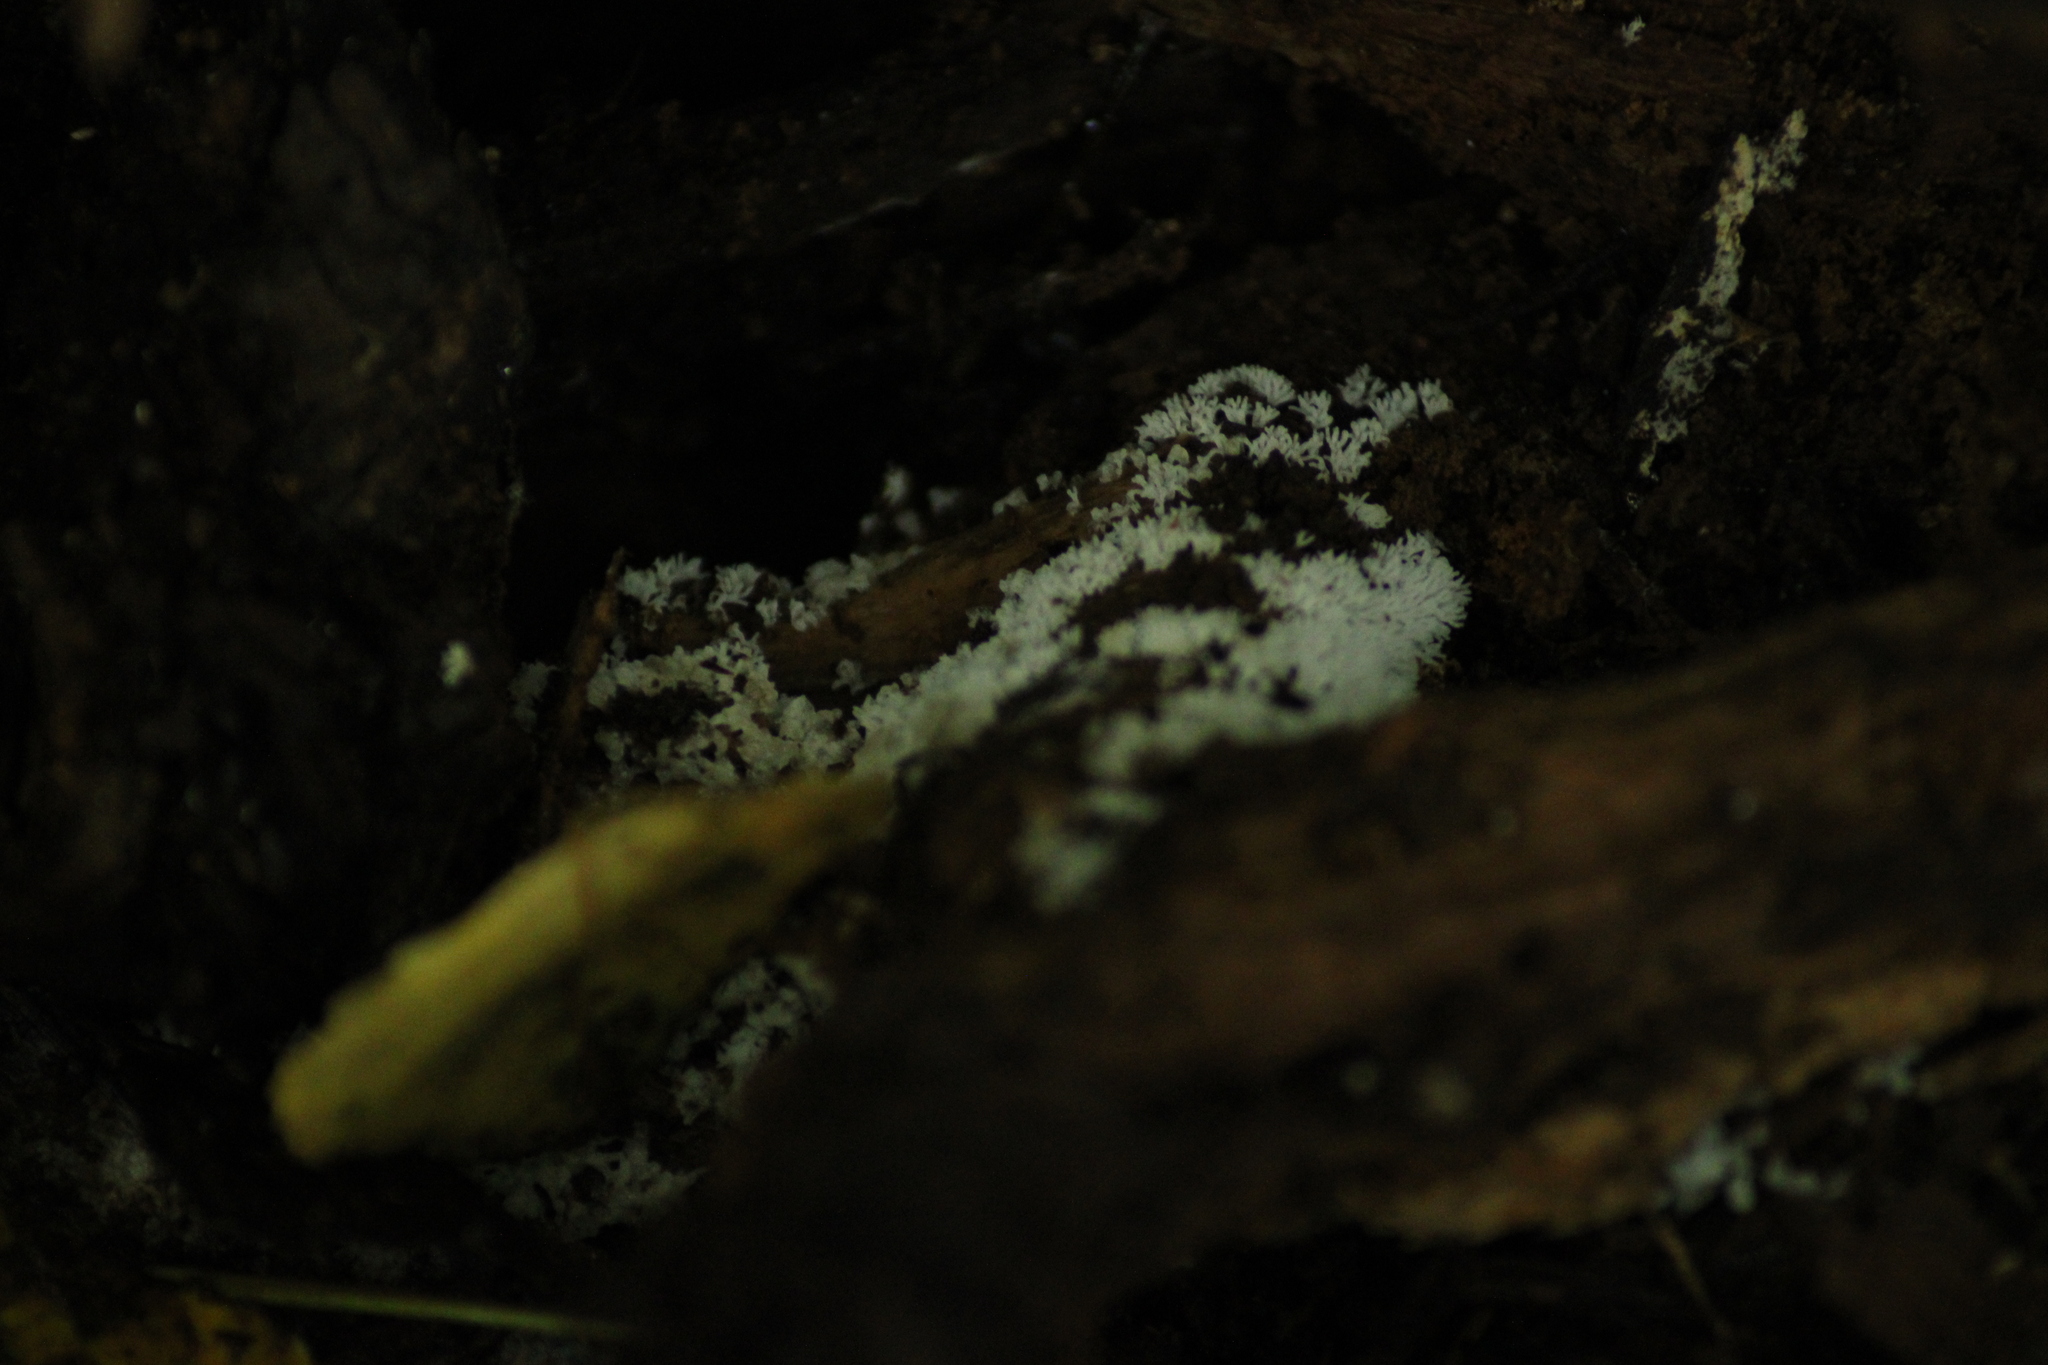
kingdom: Protozoa
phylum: Mycetozoa
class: Protosteliomycetes
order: Ceratiomyxales
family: Ceratiomyxaceae
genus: Ceratiomyxa
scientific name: Ceratiomyxa fruticulosa
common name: Honeycomb coral slime mold
